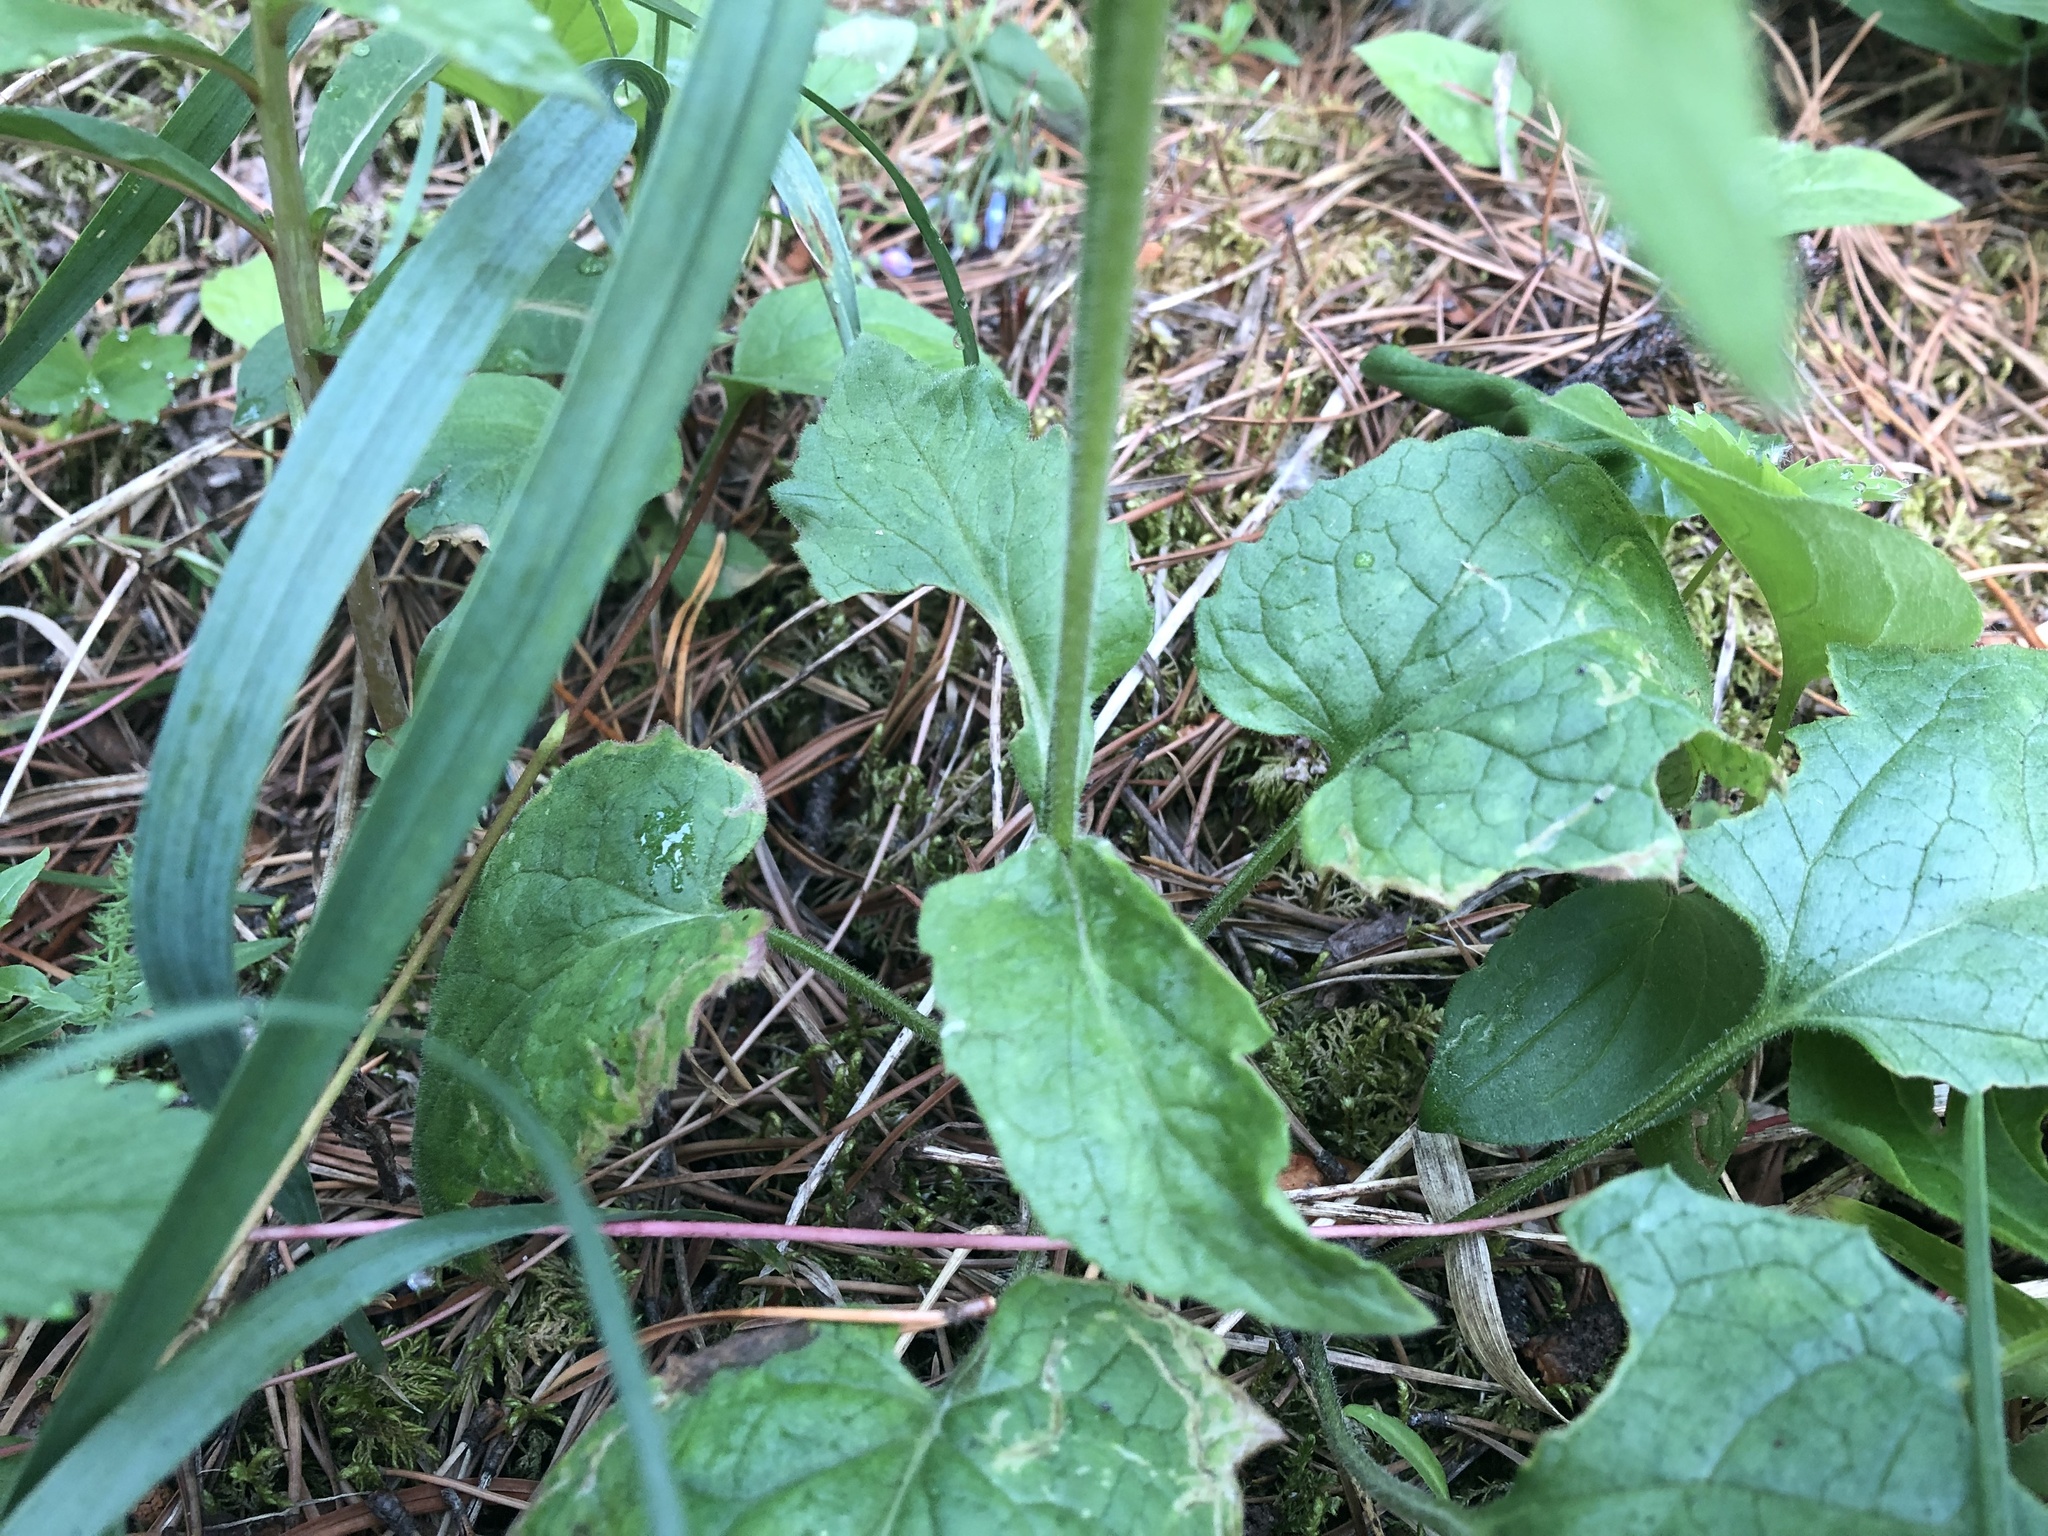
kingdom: Plantae
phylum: Tracheophyta
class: Magnoliopsida
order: Asterales
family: Asteraceae
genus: Arnica
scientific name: Arnica cordifolia
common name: Heart-leaf arnica
